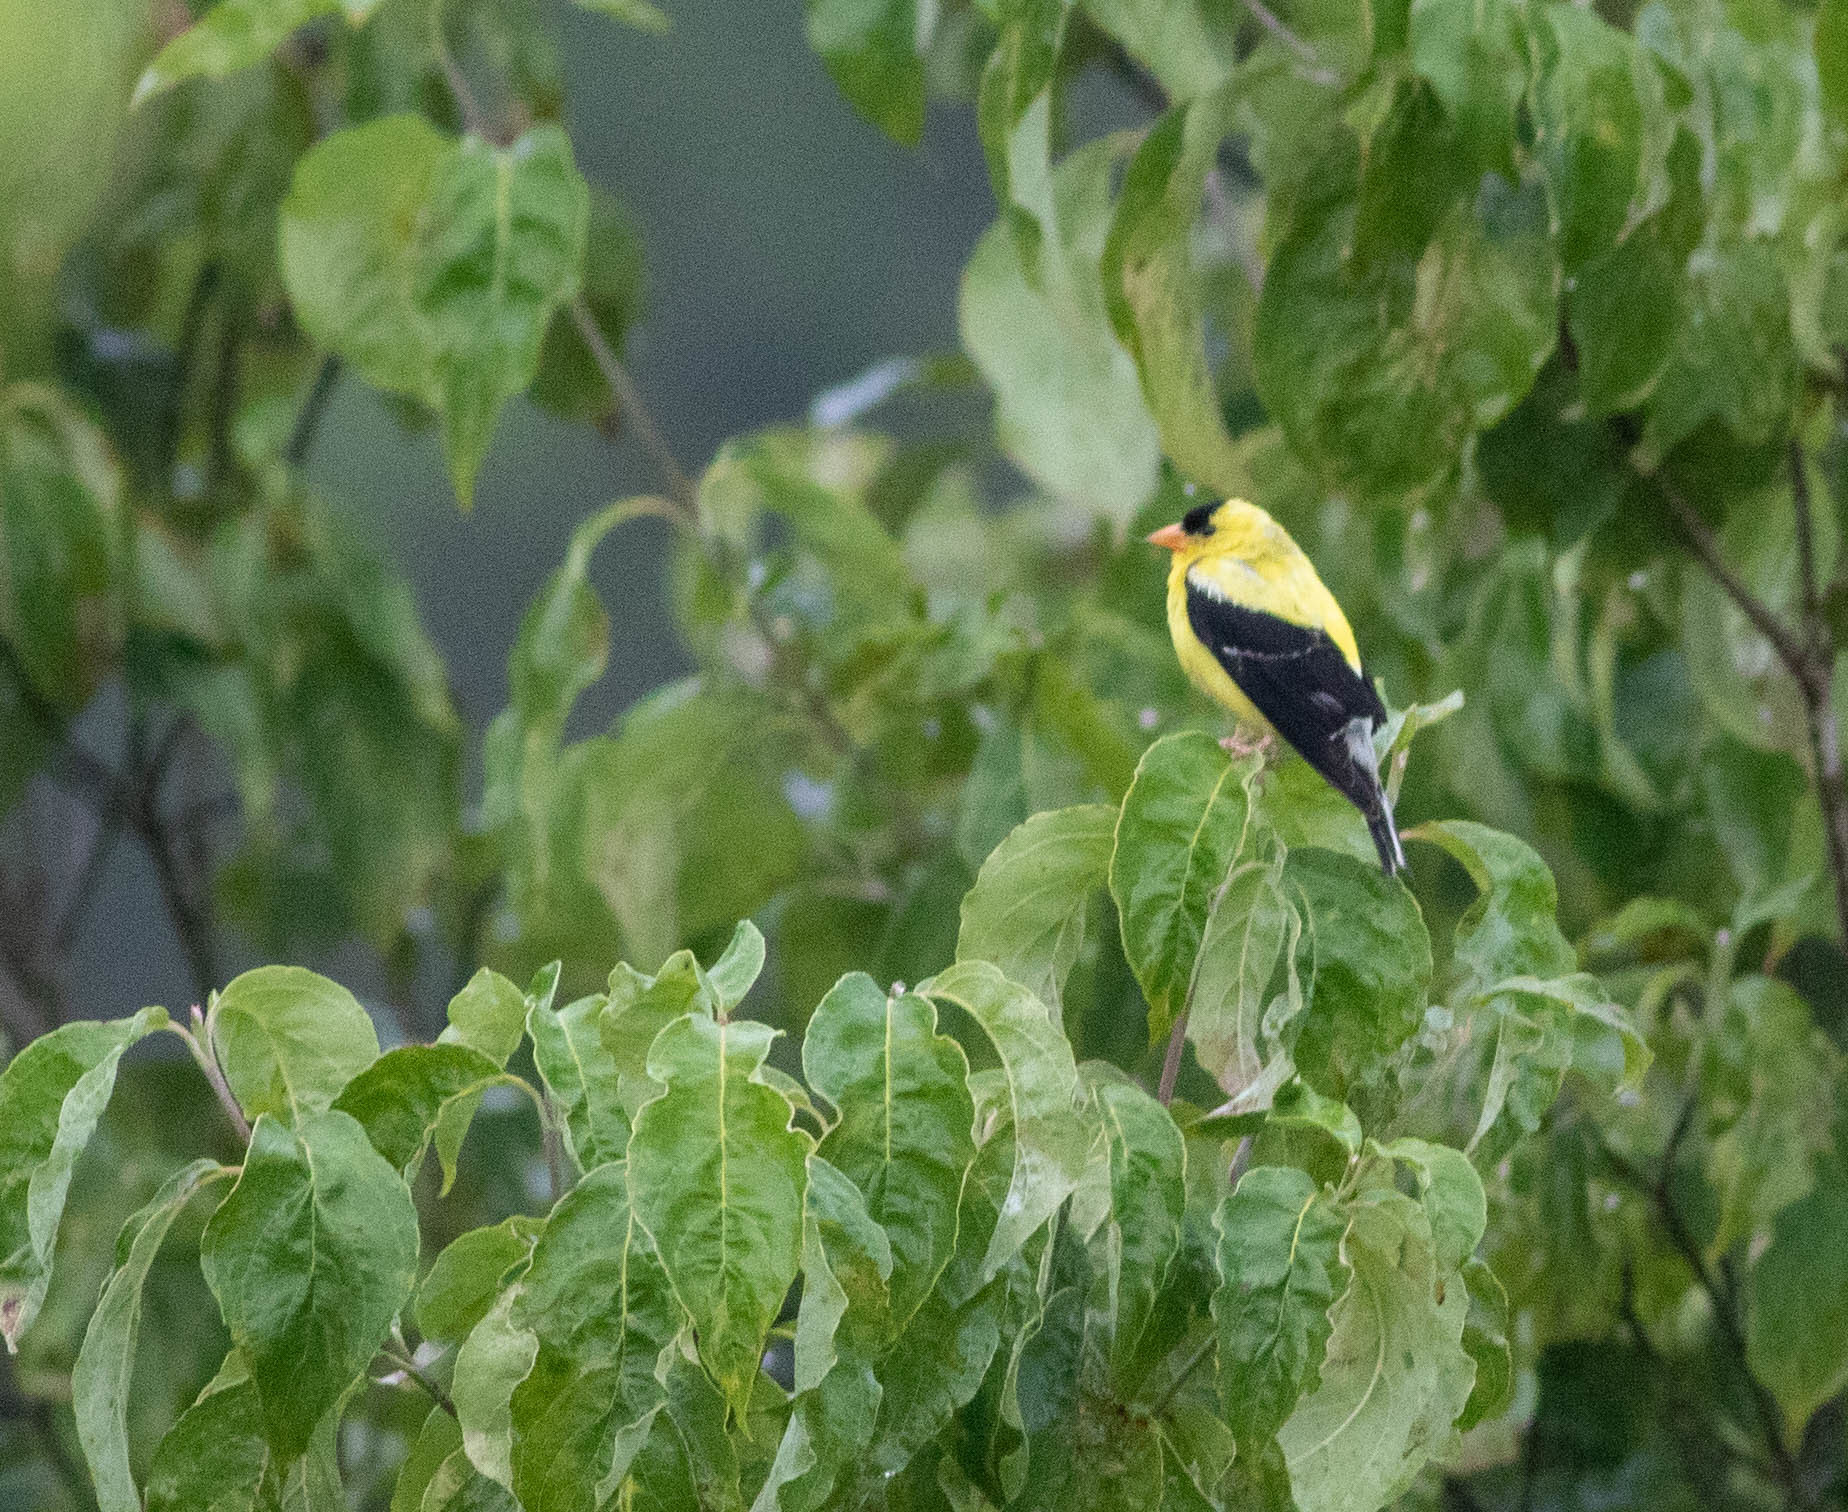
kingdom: Animalia
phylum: Chordata
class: Aves
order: Passeriformes
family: Fringillidae
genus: Spinus
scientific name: Spinus tristis
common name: American goldfinch
